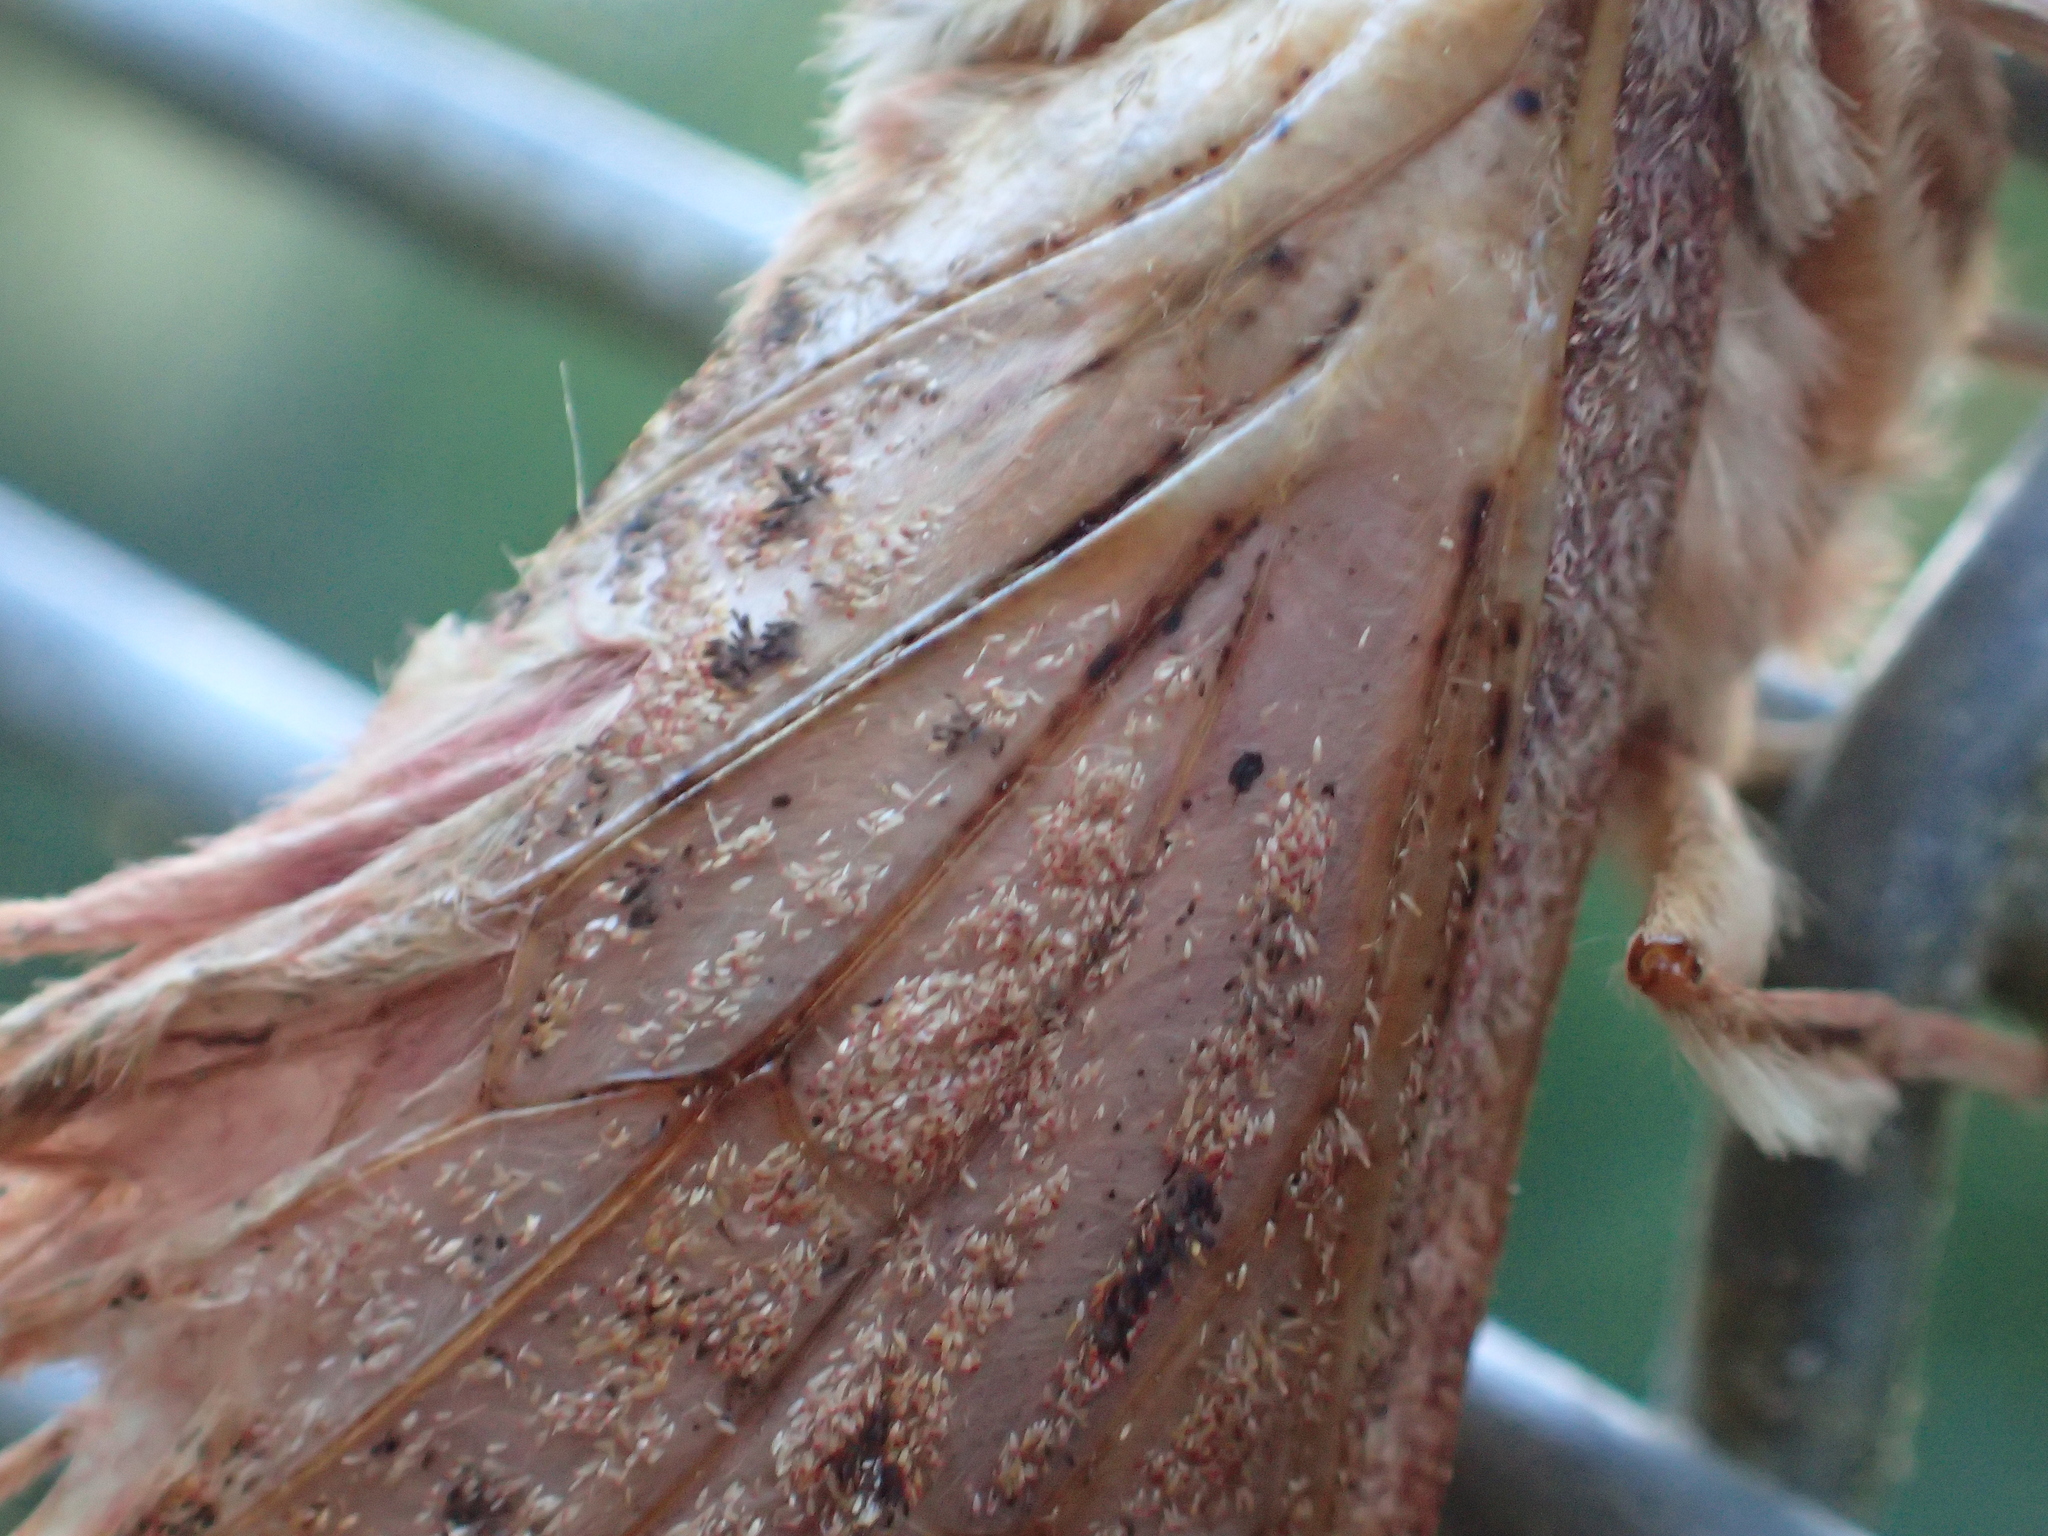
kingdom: Animalia
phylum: Arthropoda
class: Insecta
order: Lepidoptera
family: Hepialidae
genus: Dumbletonius
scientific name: Dumbletonius unimaculata
